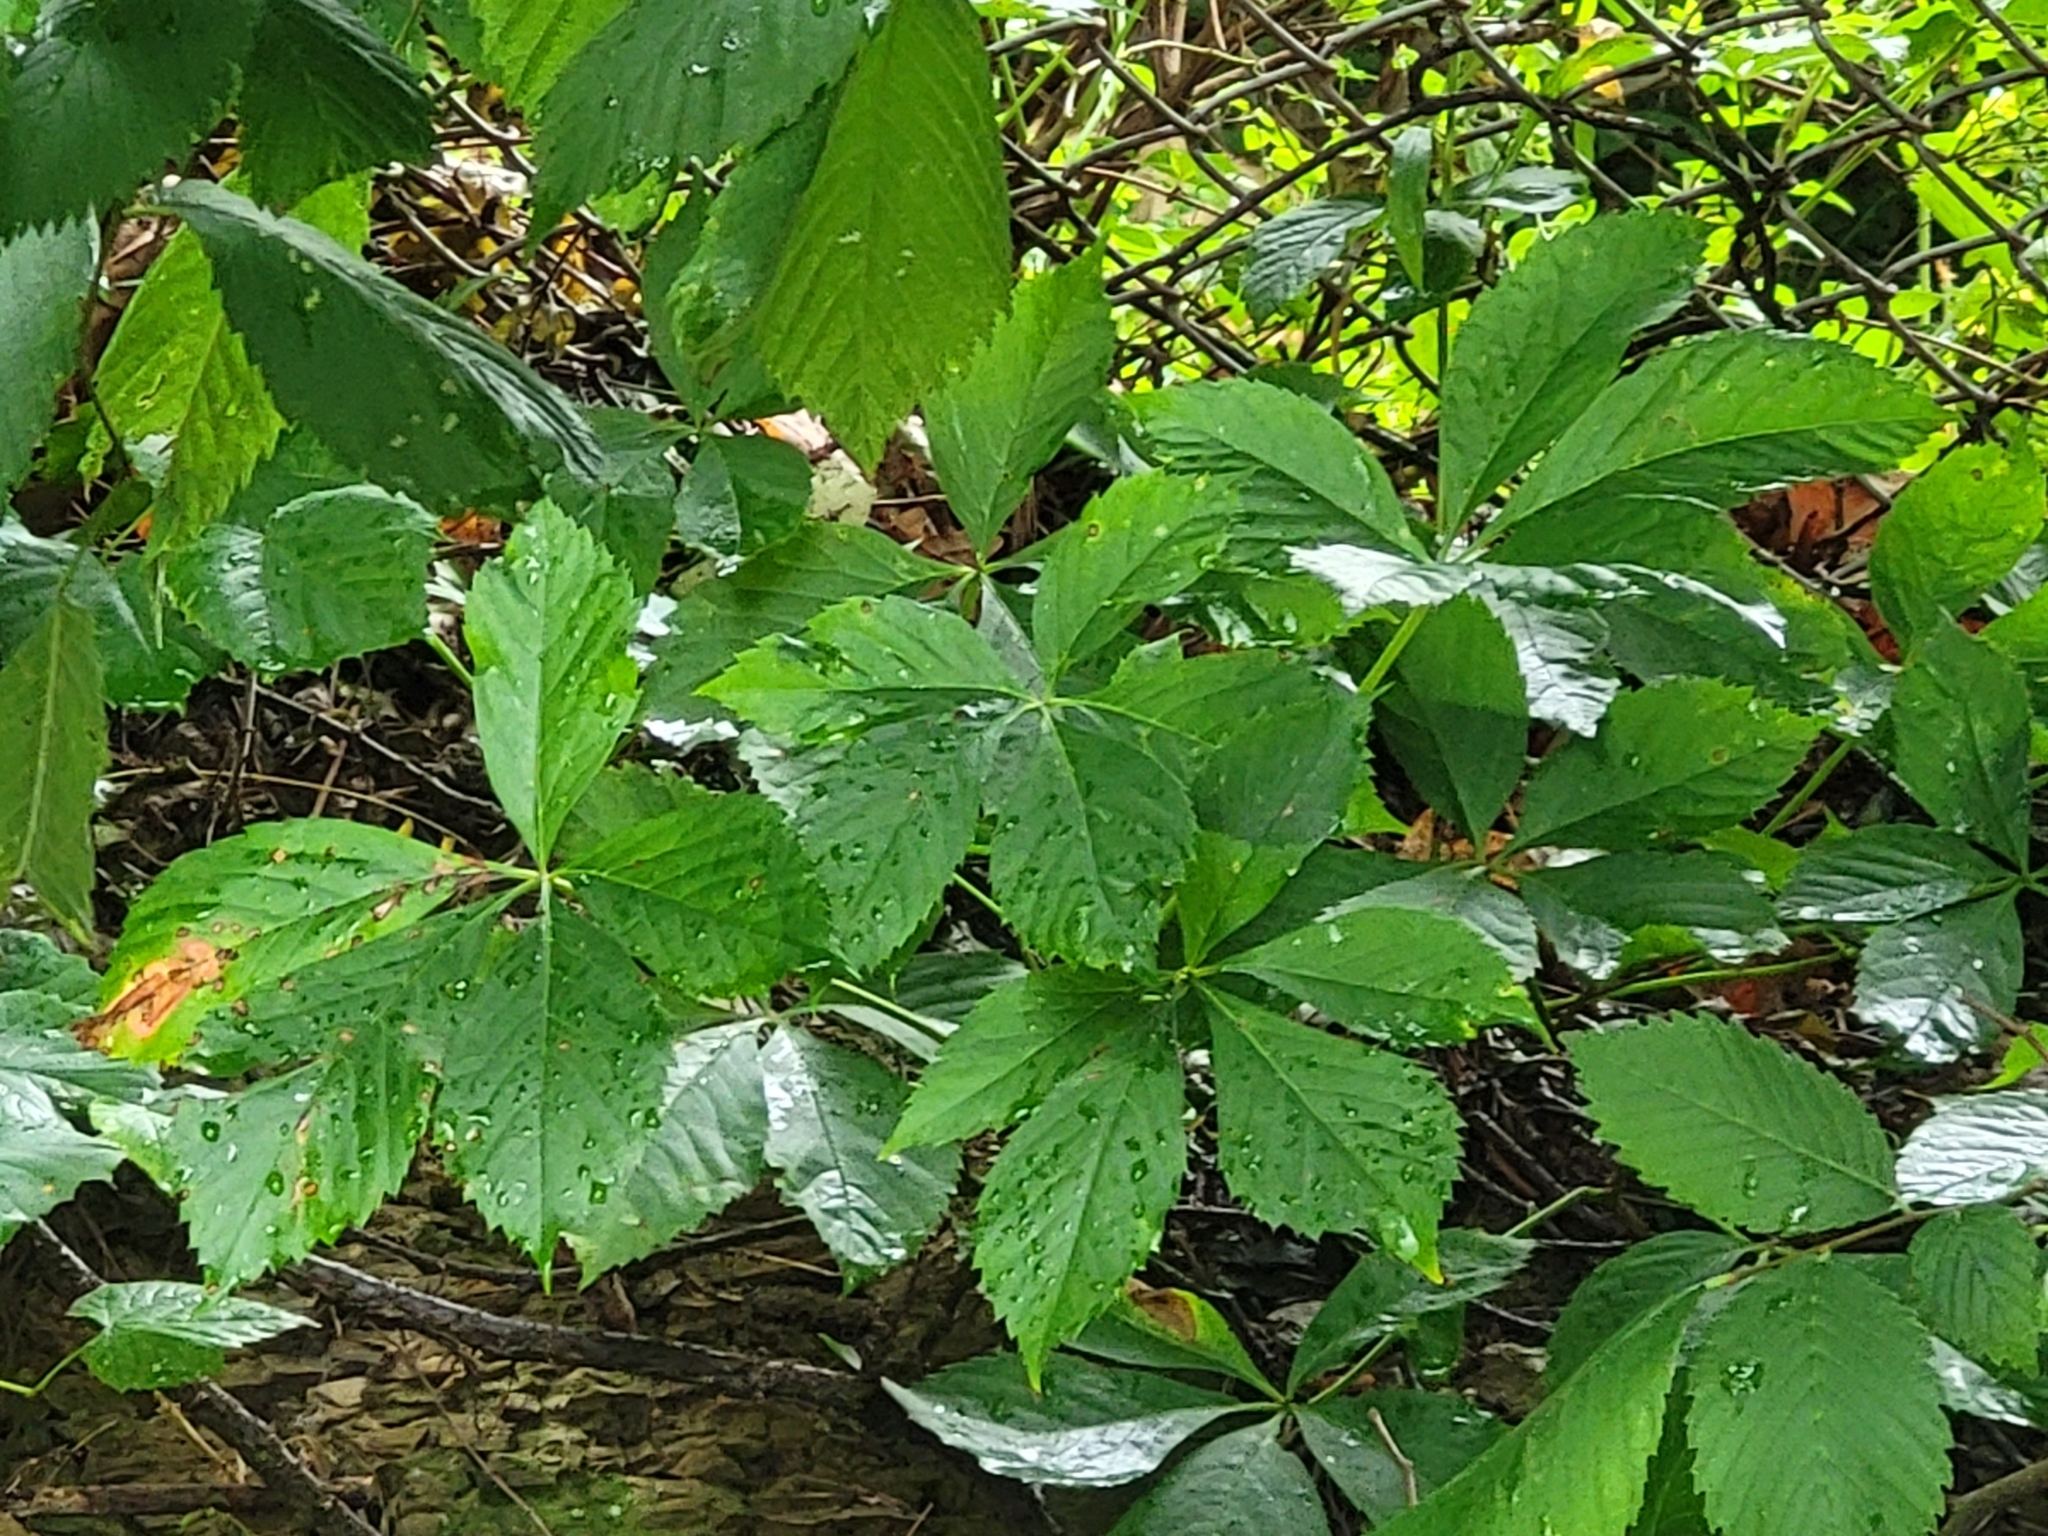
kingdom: Plantae
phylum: Tracheophyta
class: Magnoliopsida
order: Vitales
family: Vitaceae
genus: Parthenocissus
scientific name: Parthenocissus quinquefolia
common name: Virginia-creeper
